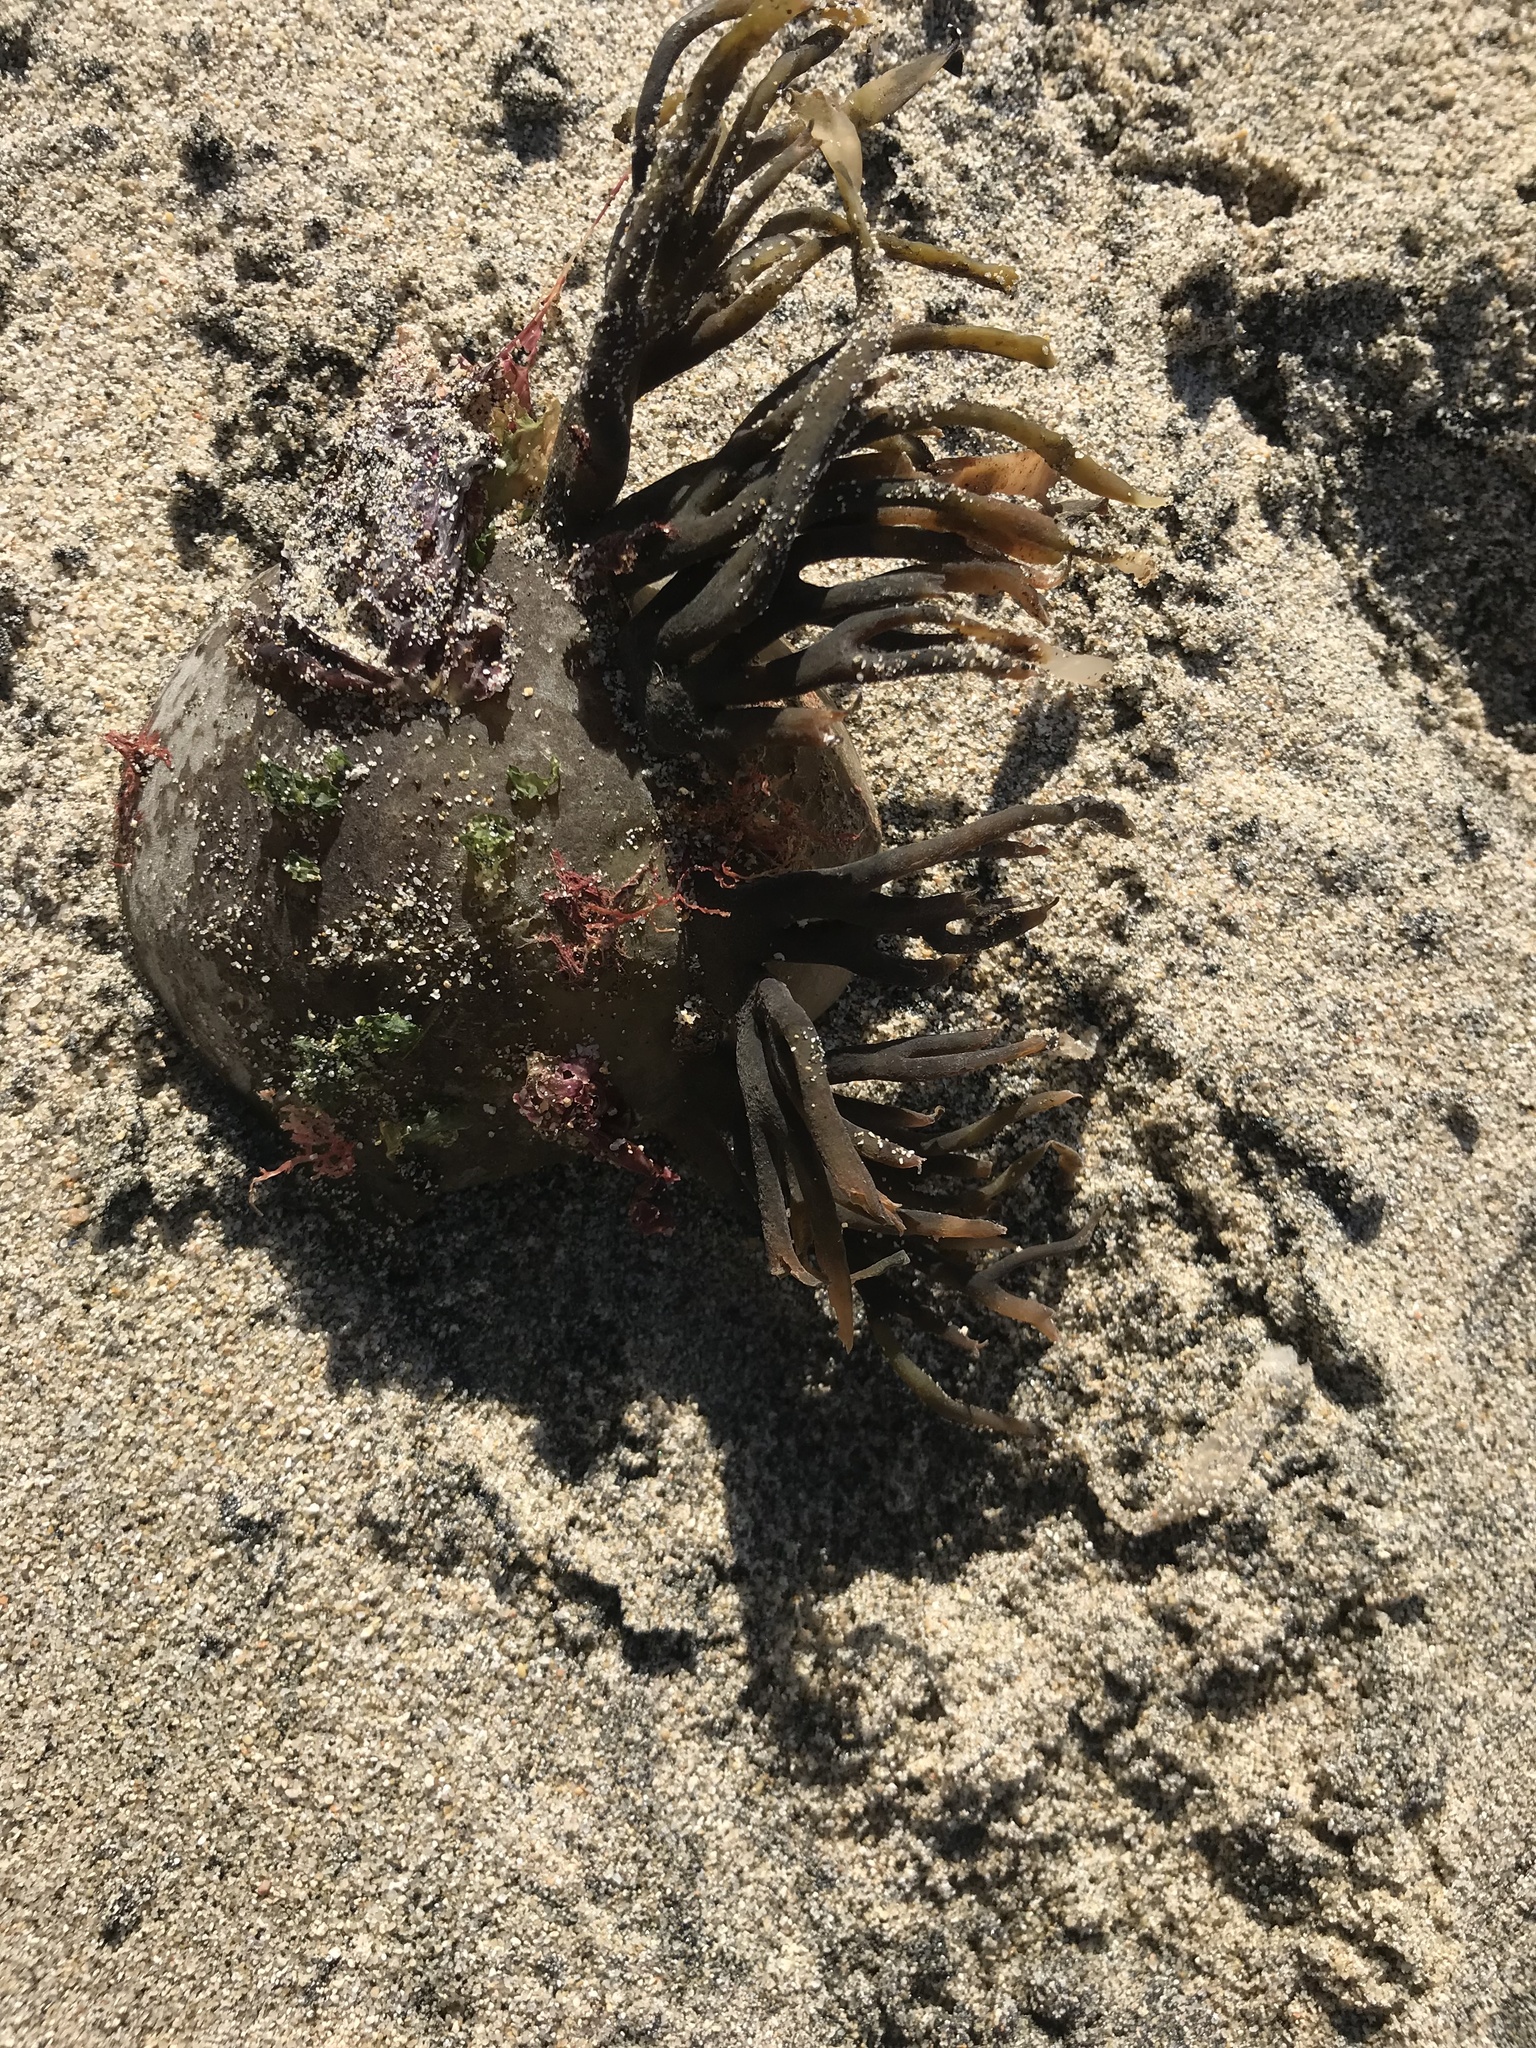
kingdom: Chromista
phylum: Ochrophyta
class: Phaeophyceae
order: Laminariales
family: Laminariaceae
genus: Nereocystis
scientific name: Nereocystis luetkeana
